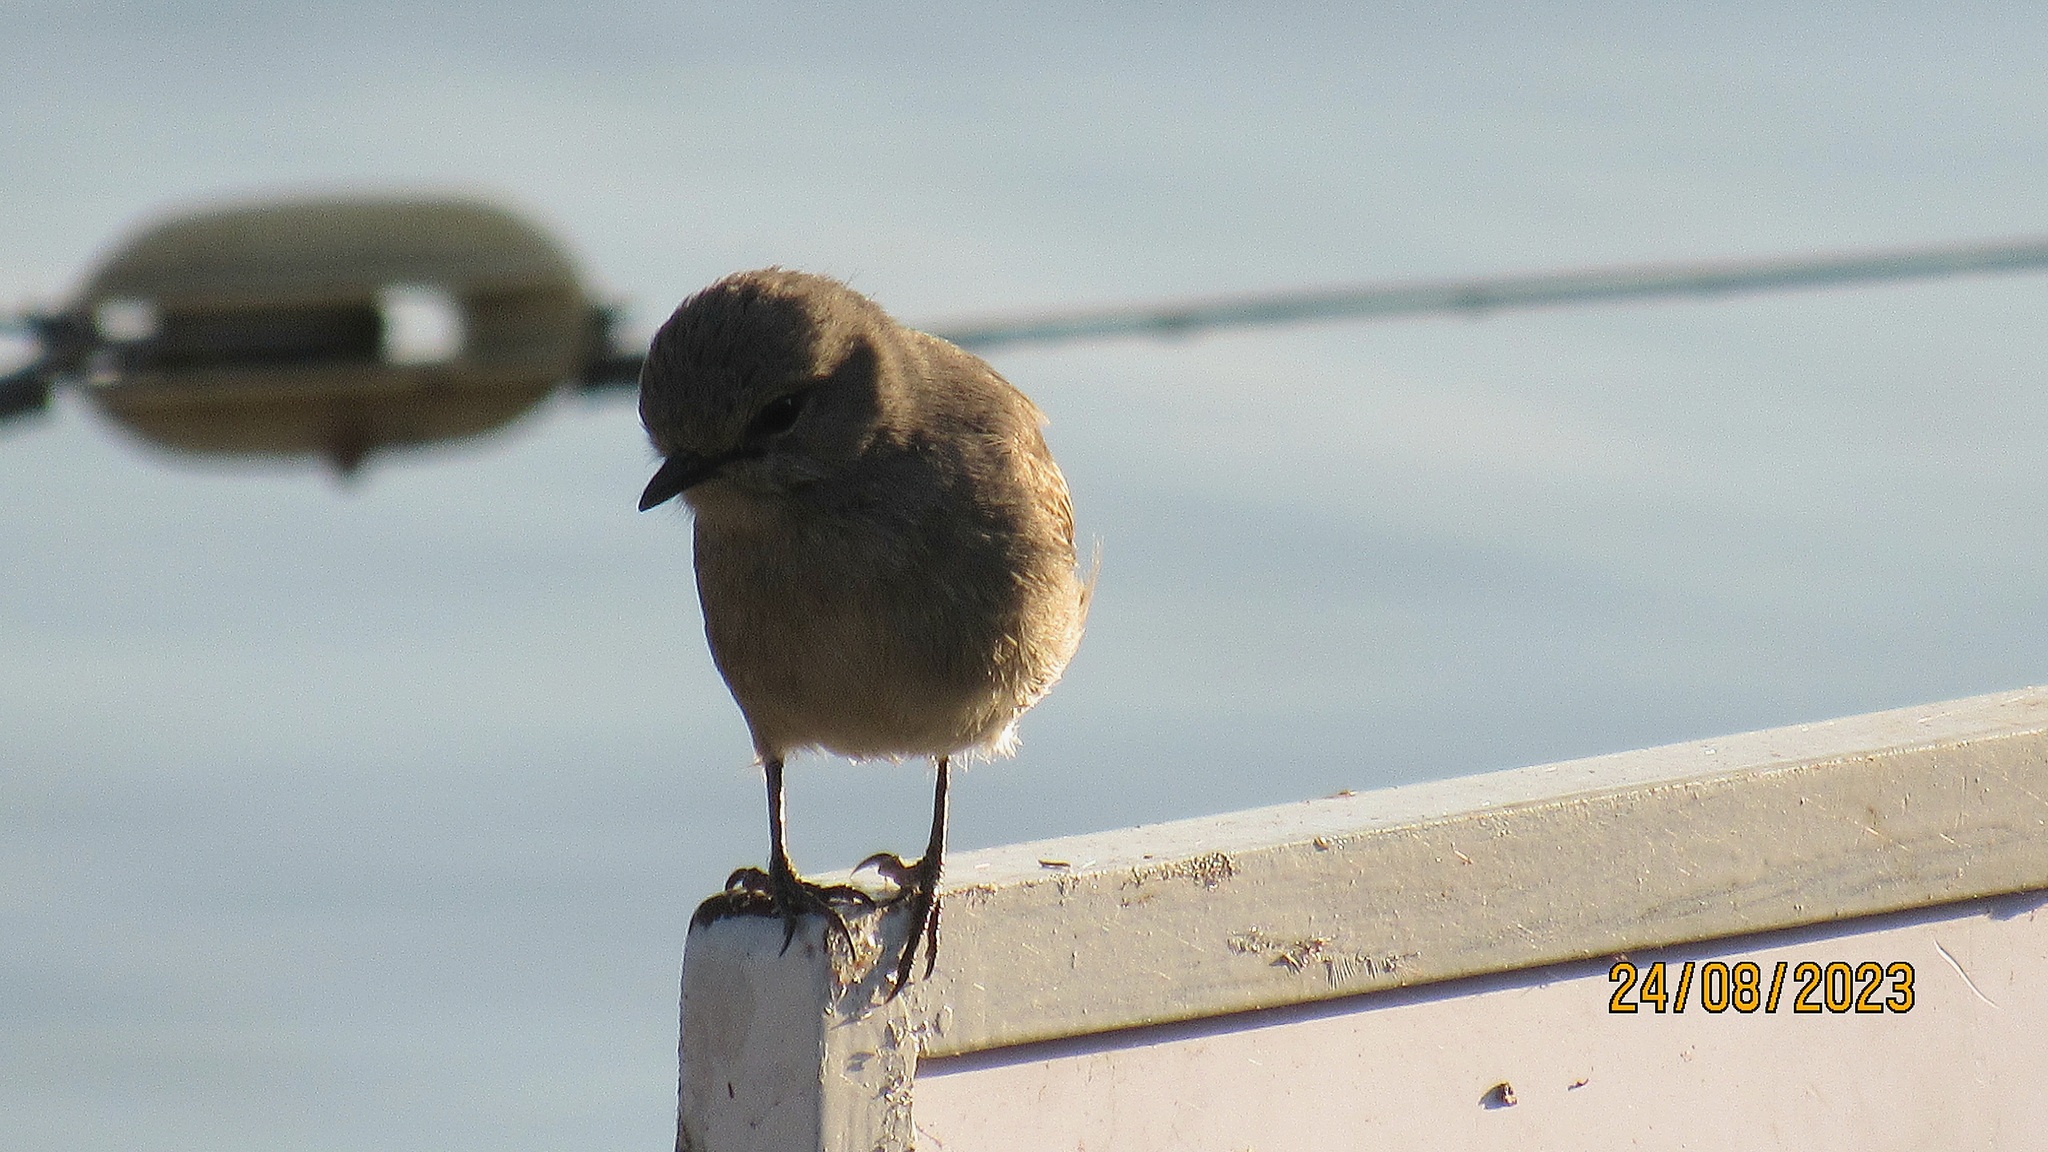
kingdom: Animalia
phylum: Chordata
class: Aves
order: Passeriformes
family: Muscicapidae
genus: Bradornis
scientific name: Bradornis microrhynchus
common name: African grey flycatcher
